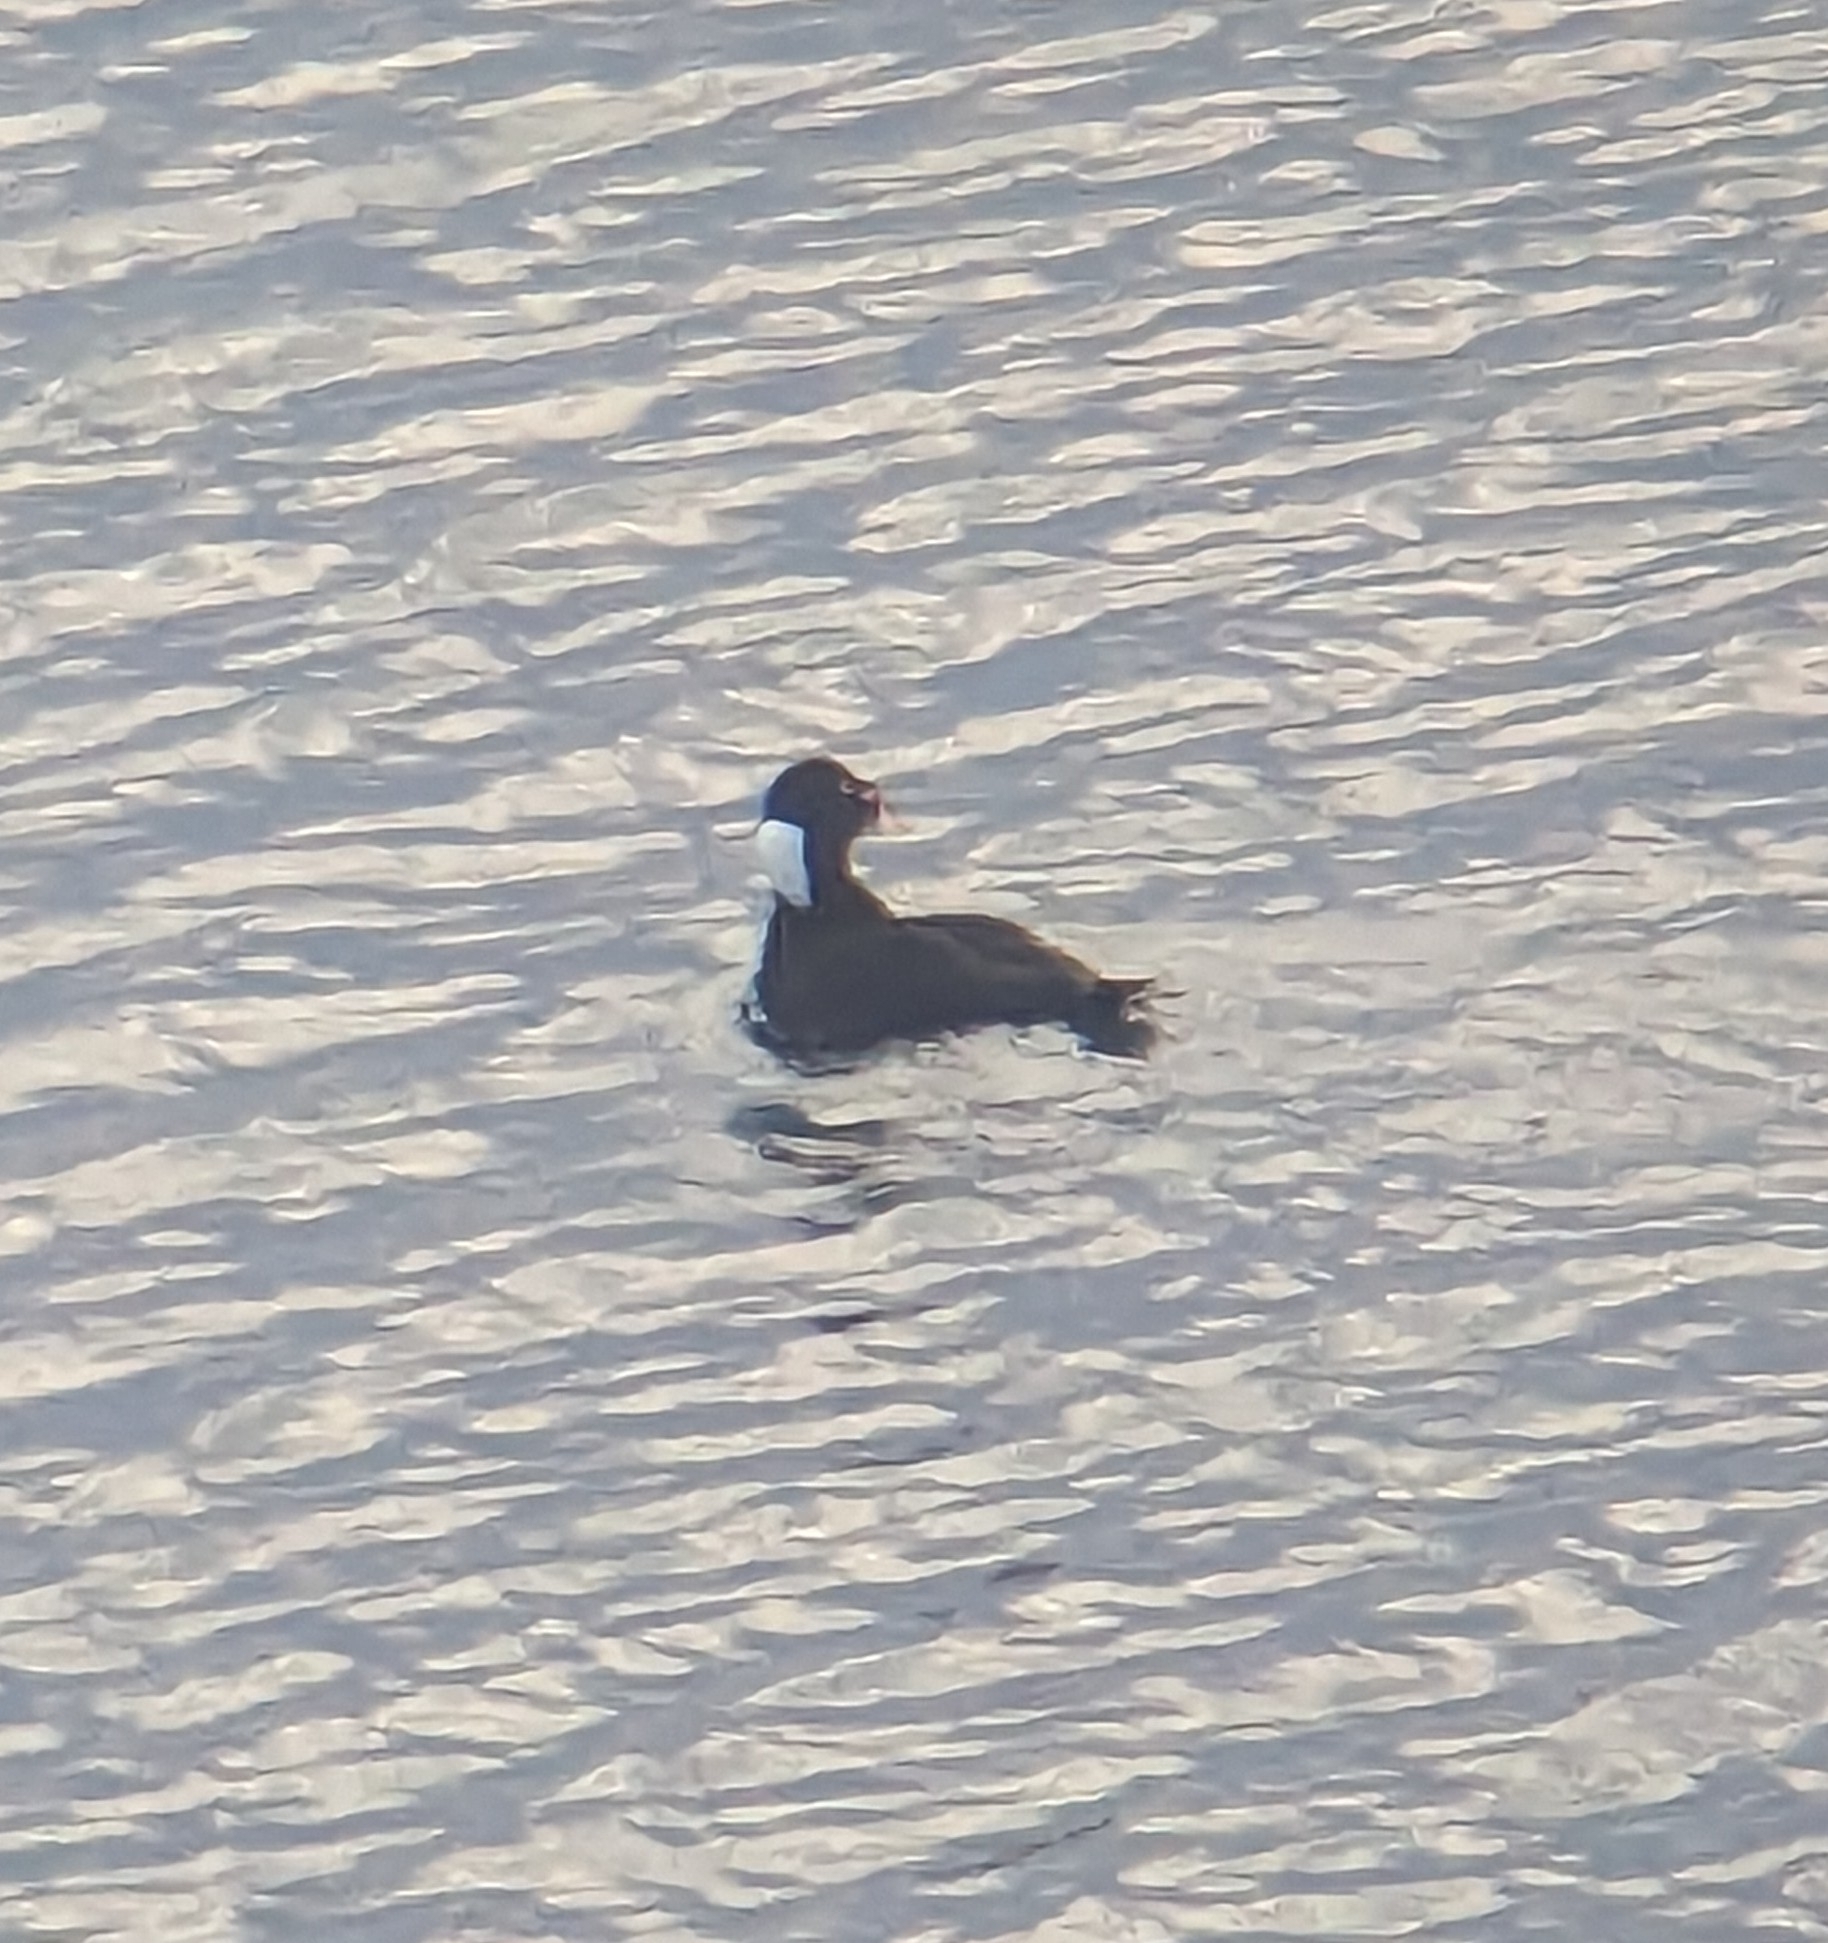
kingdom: Animalia
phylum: Chordata
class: Aves
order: Anseriformes
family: Anatidae
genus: Melanitta
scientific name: Melanitta perspicillata
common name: Surf scoter
